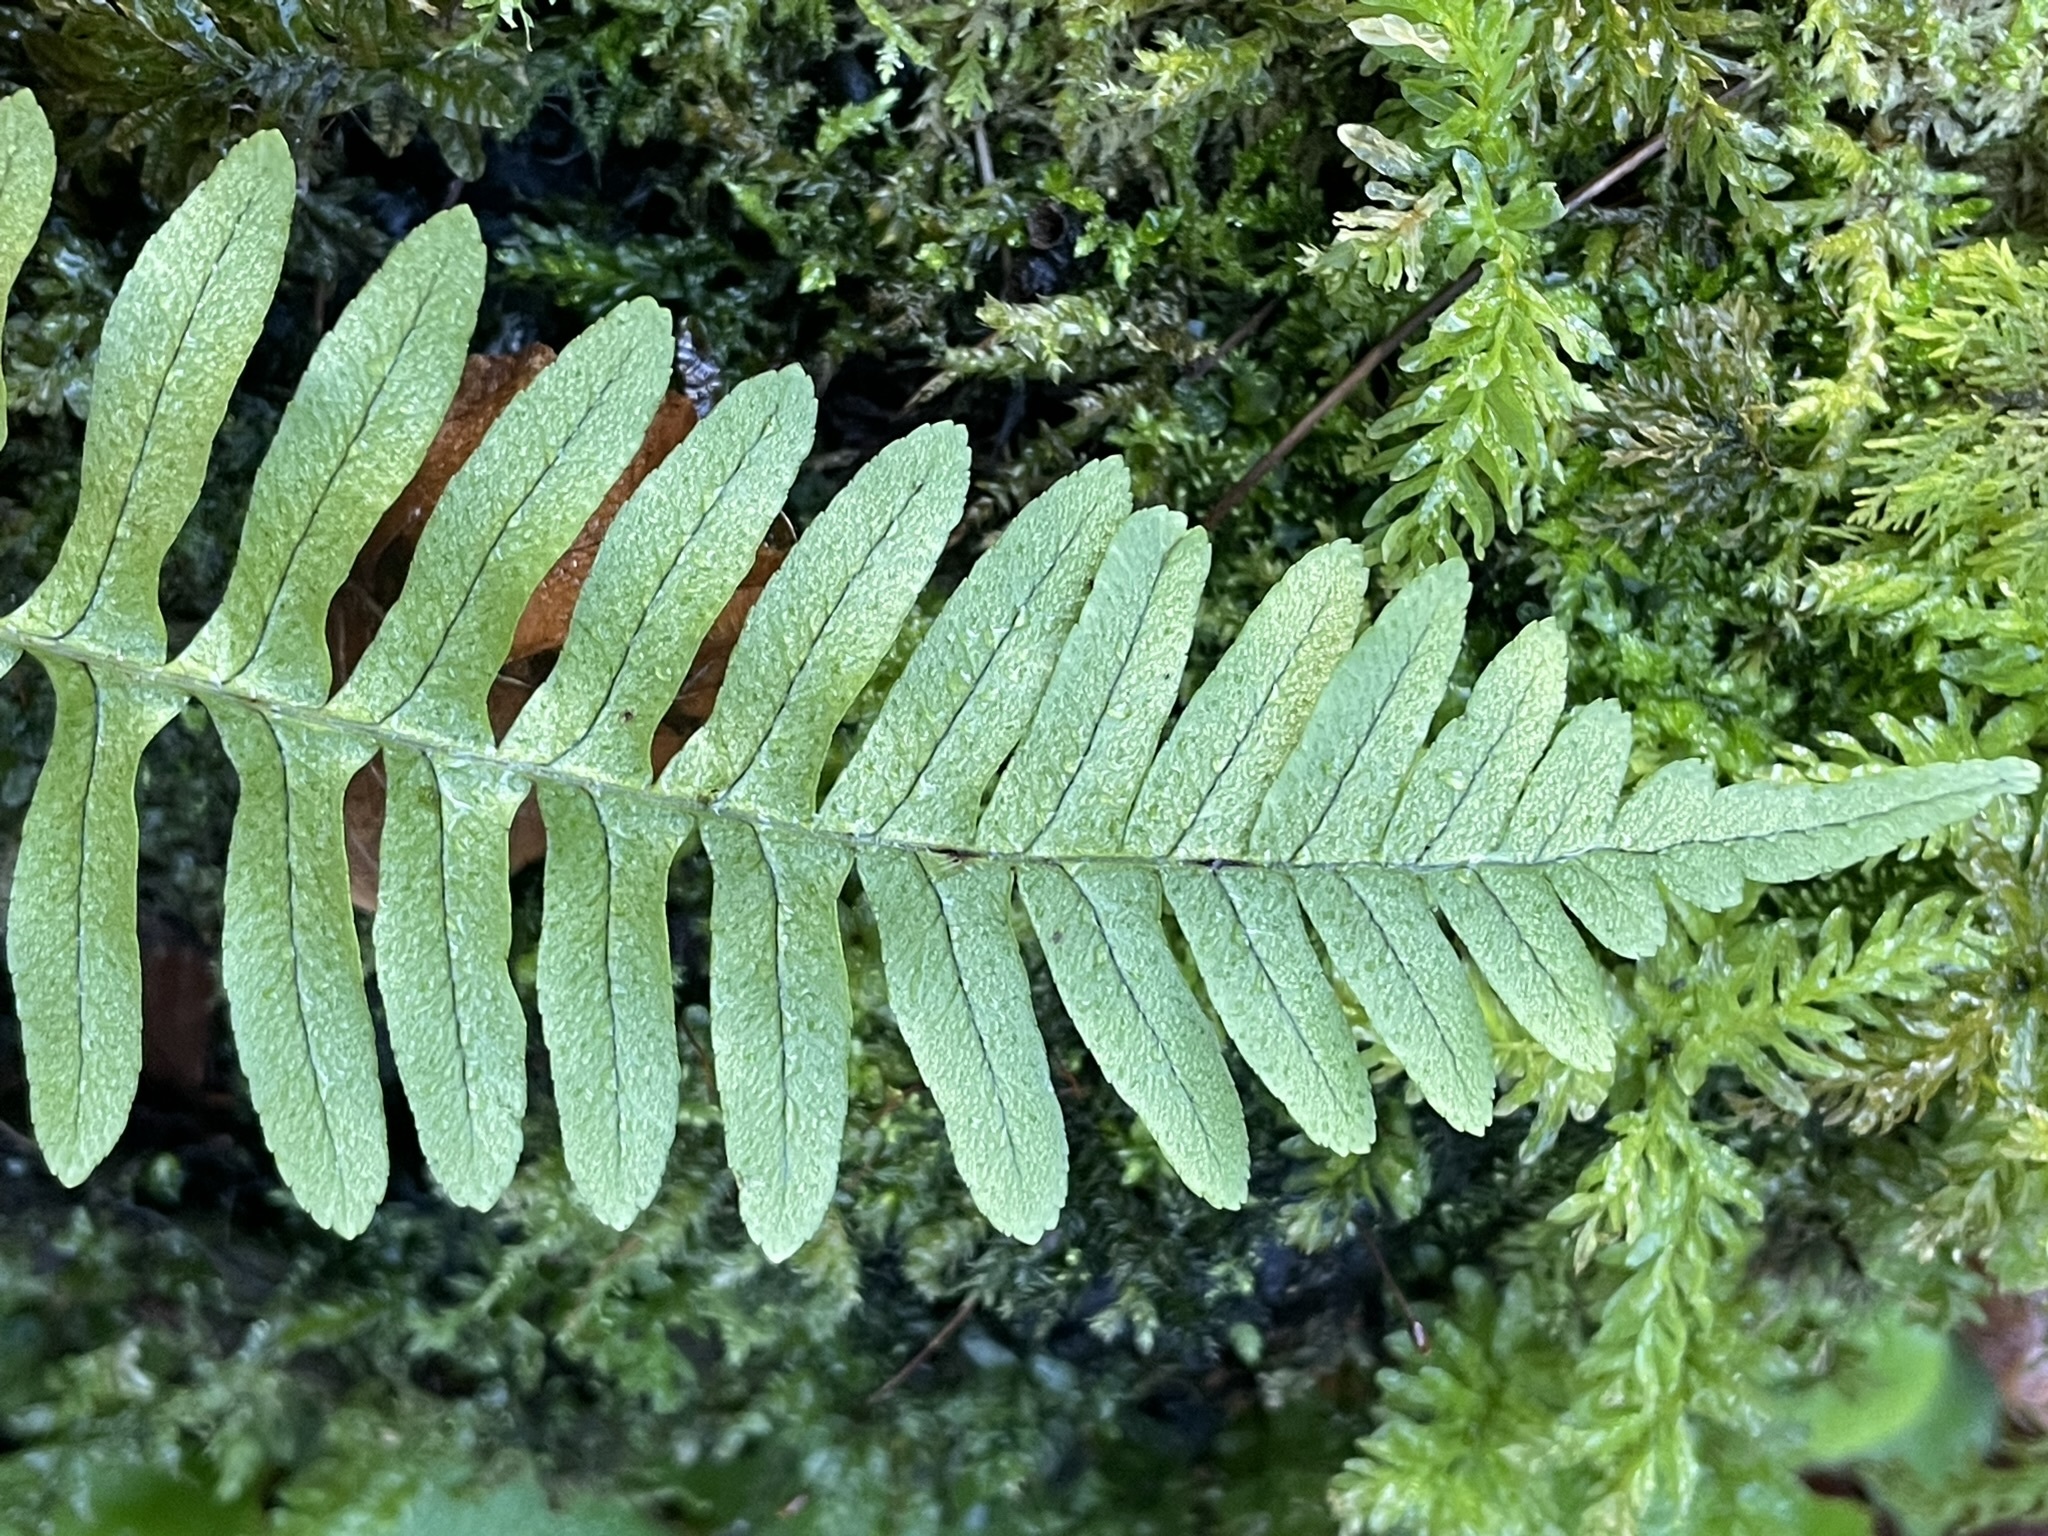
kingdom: Plantae
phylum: Tracheophyta
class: Polypodiopsida
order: Polypodiales
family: Polypodiaceae
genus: Polypodium
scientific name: Polypodium vulgare
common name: Common polypody
